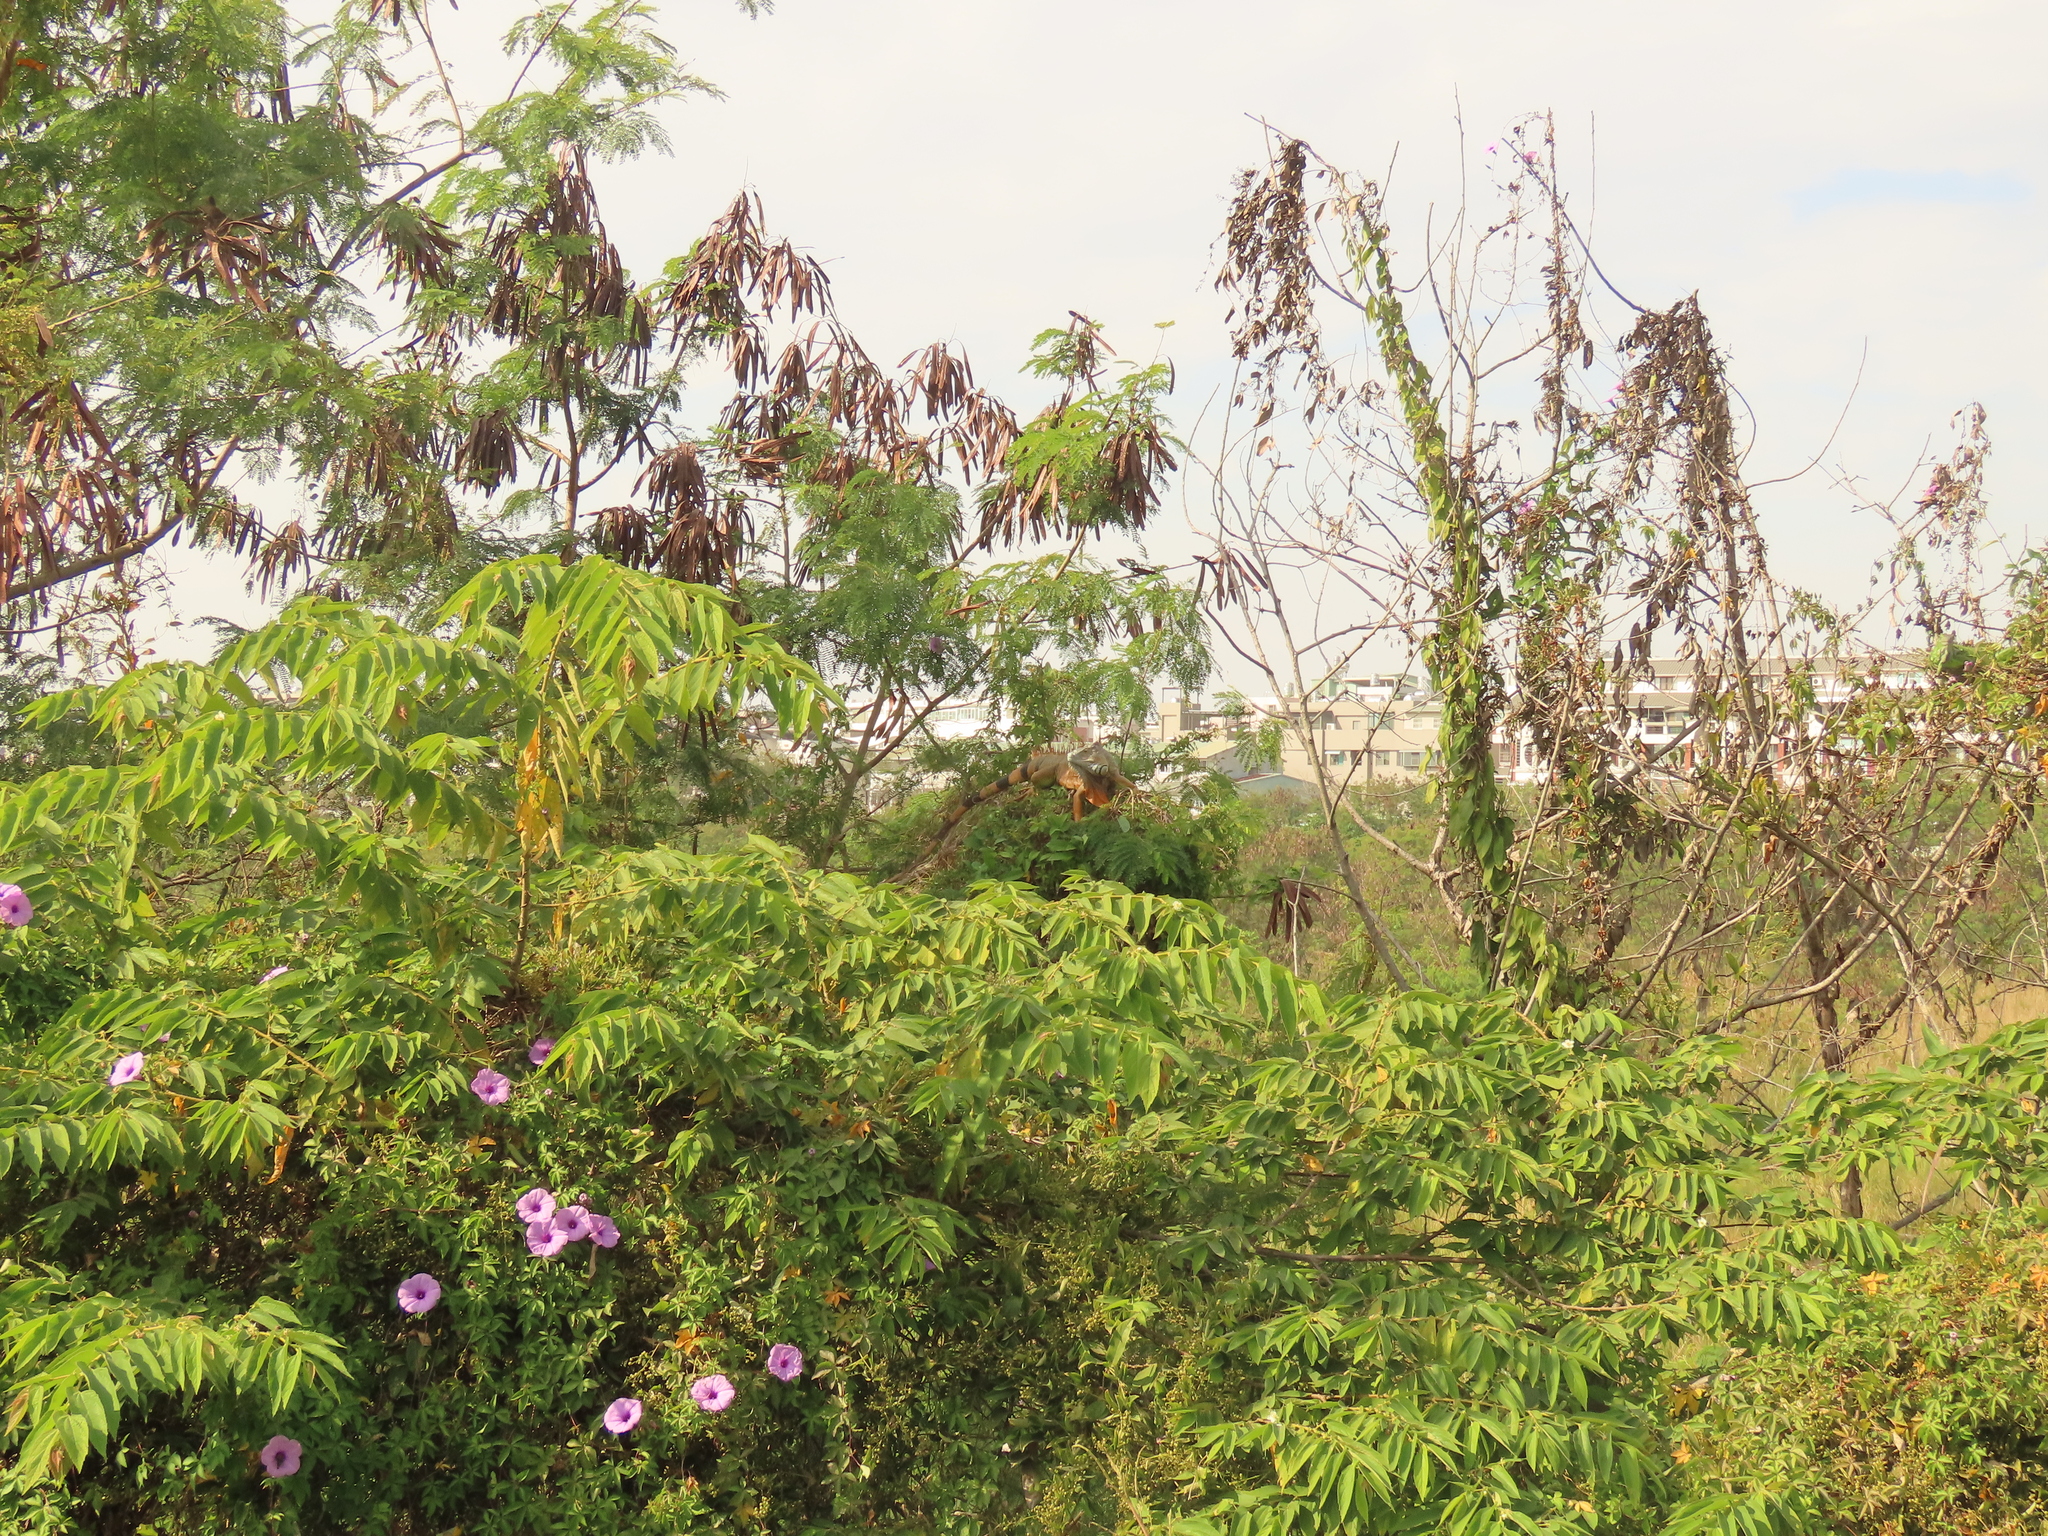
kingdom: Animalia
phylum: Chordata
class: Squamata
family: Iguanidae
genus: Iguana
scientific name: Iguana iguana
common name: Green iguana
